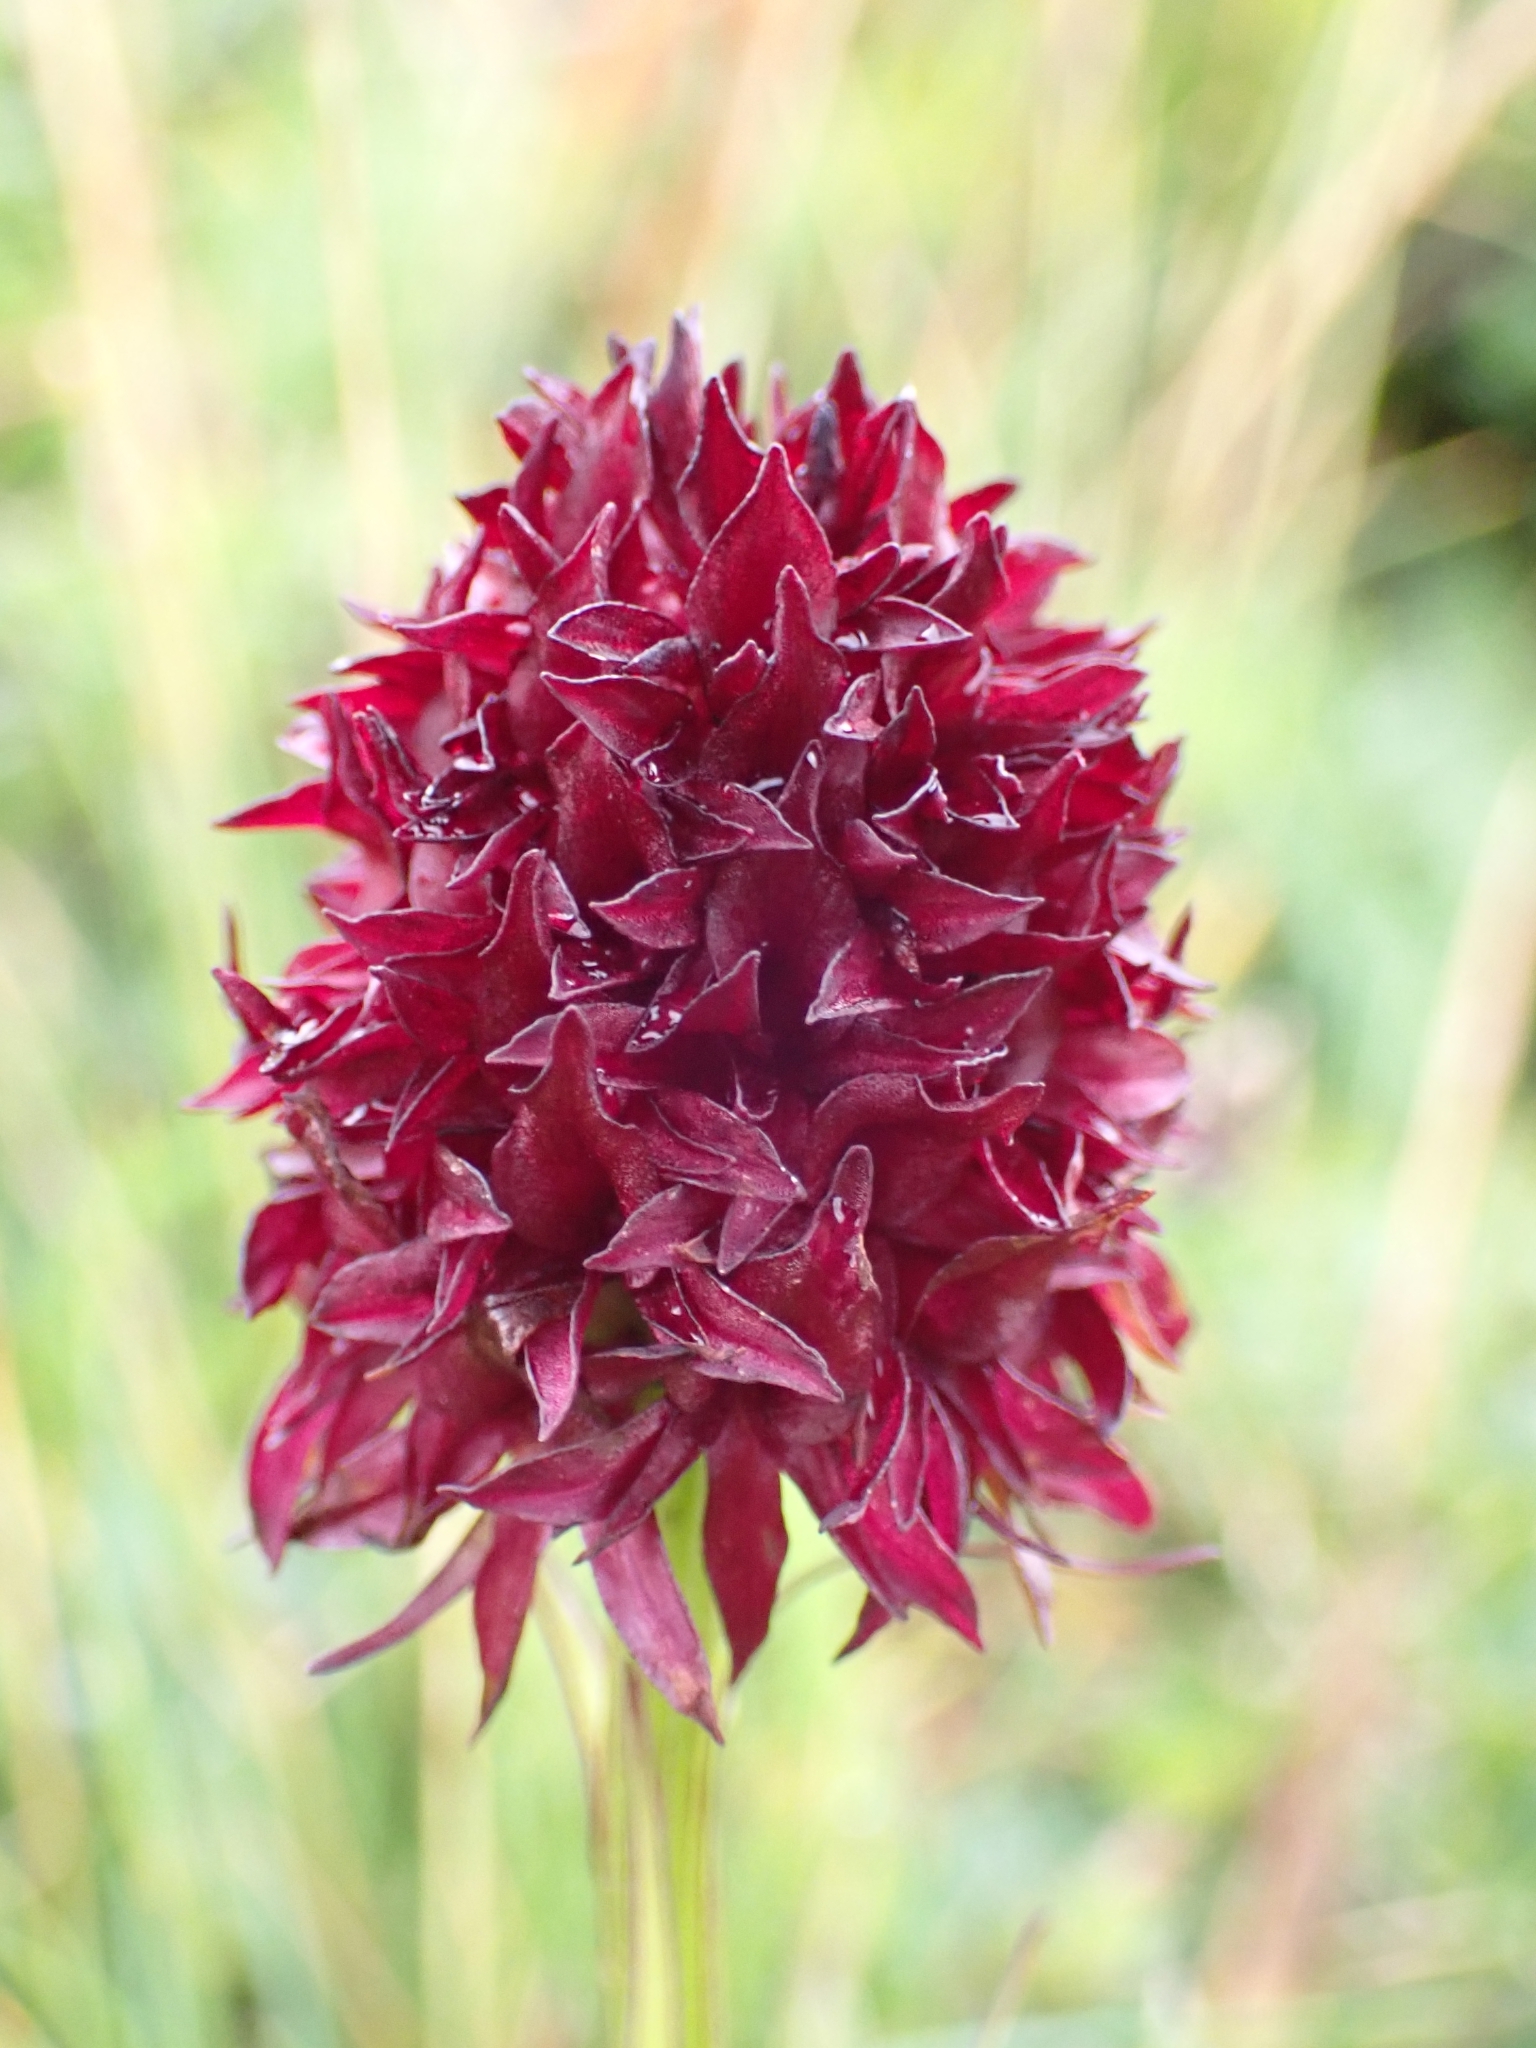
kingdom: Plantae
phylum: Tracheophyta
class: Liliopsida
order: Asparagales
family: Orchidaceae
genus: Gymnadenia
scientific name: Gymnadenia rhellicani
